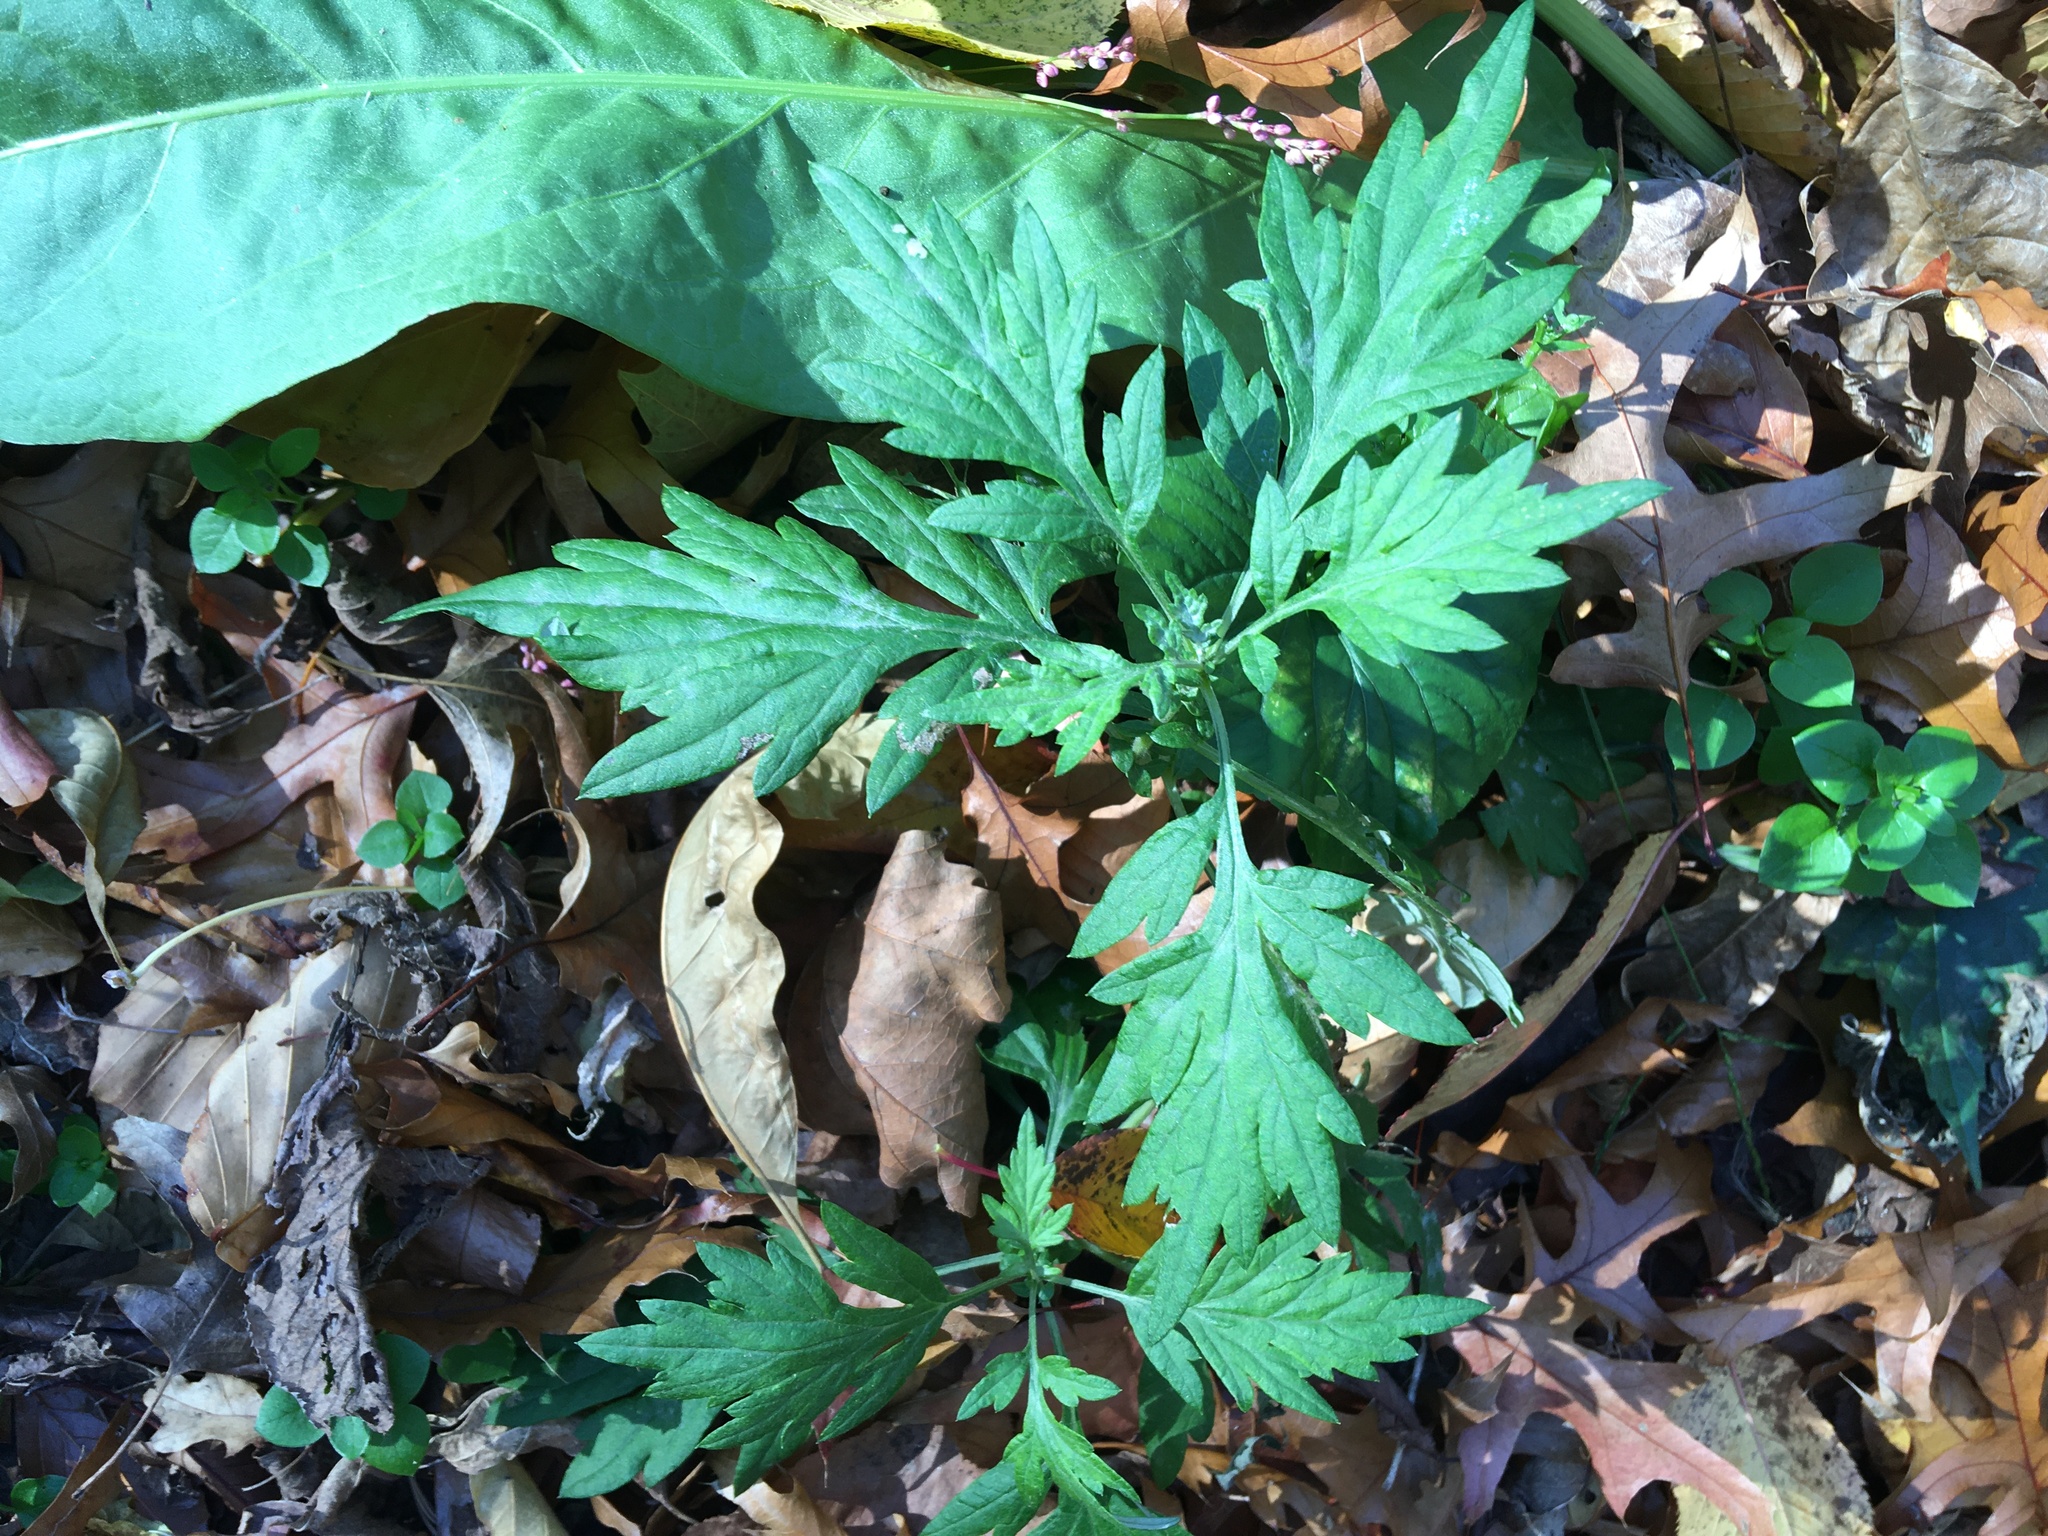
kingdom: Plantae
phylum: Tracheophyta
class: Magnoliopsida
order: Asterales
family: Asteraceae
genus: Artemisia
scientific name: Artemisia vulgaris
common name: Mugwort
